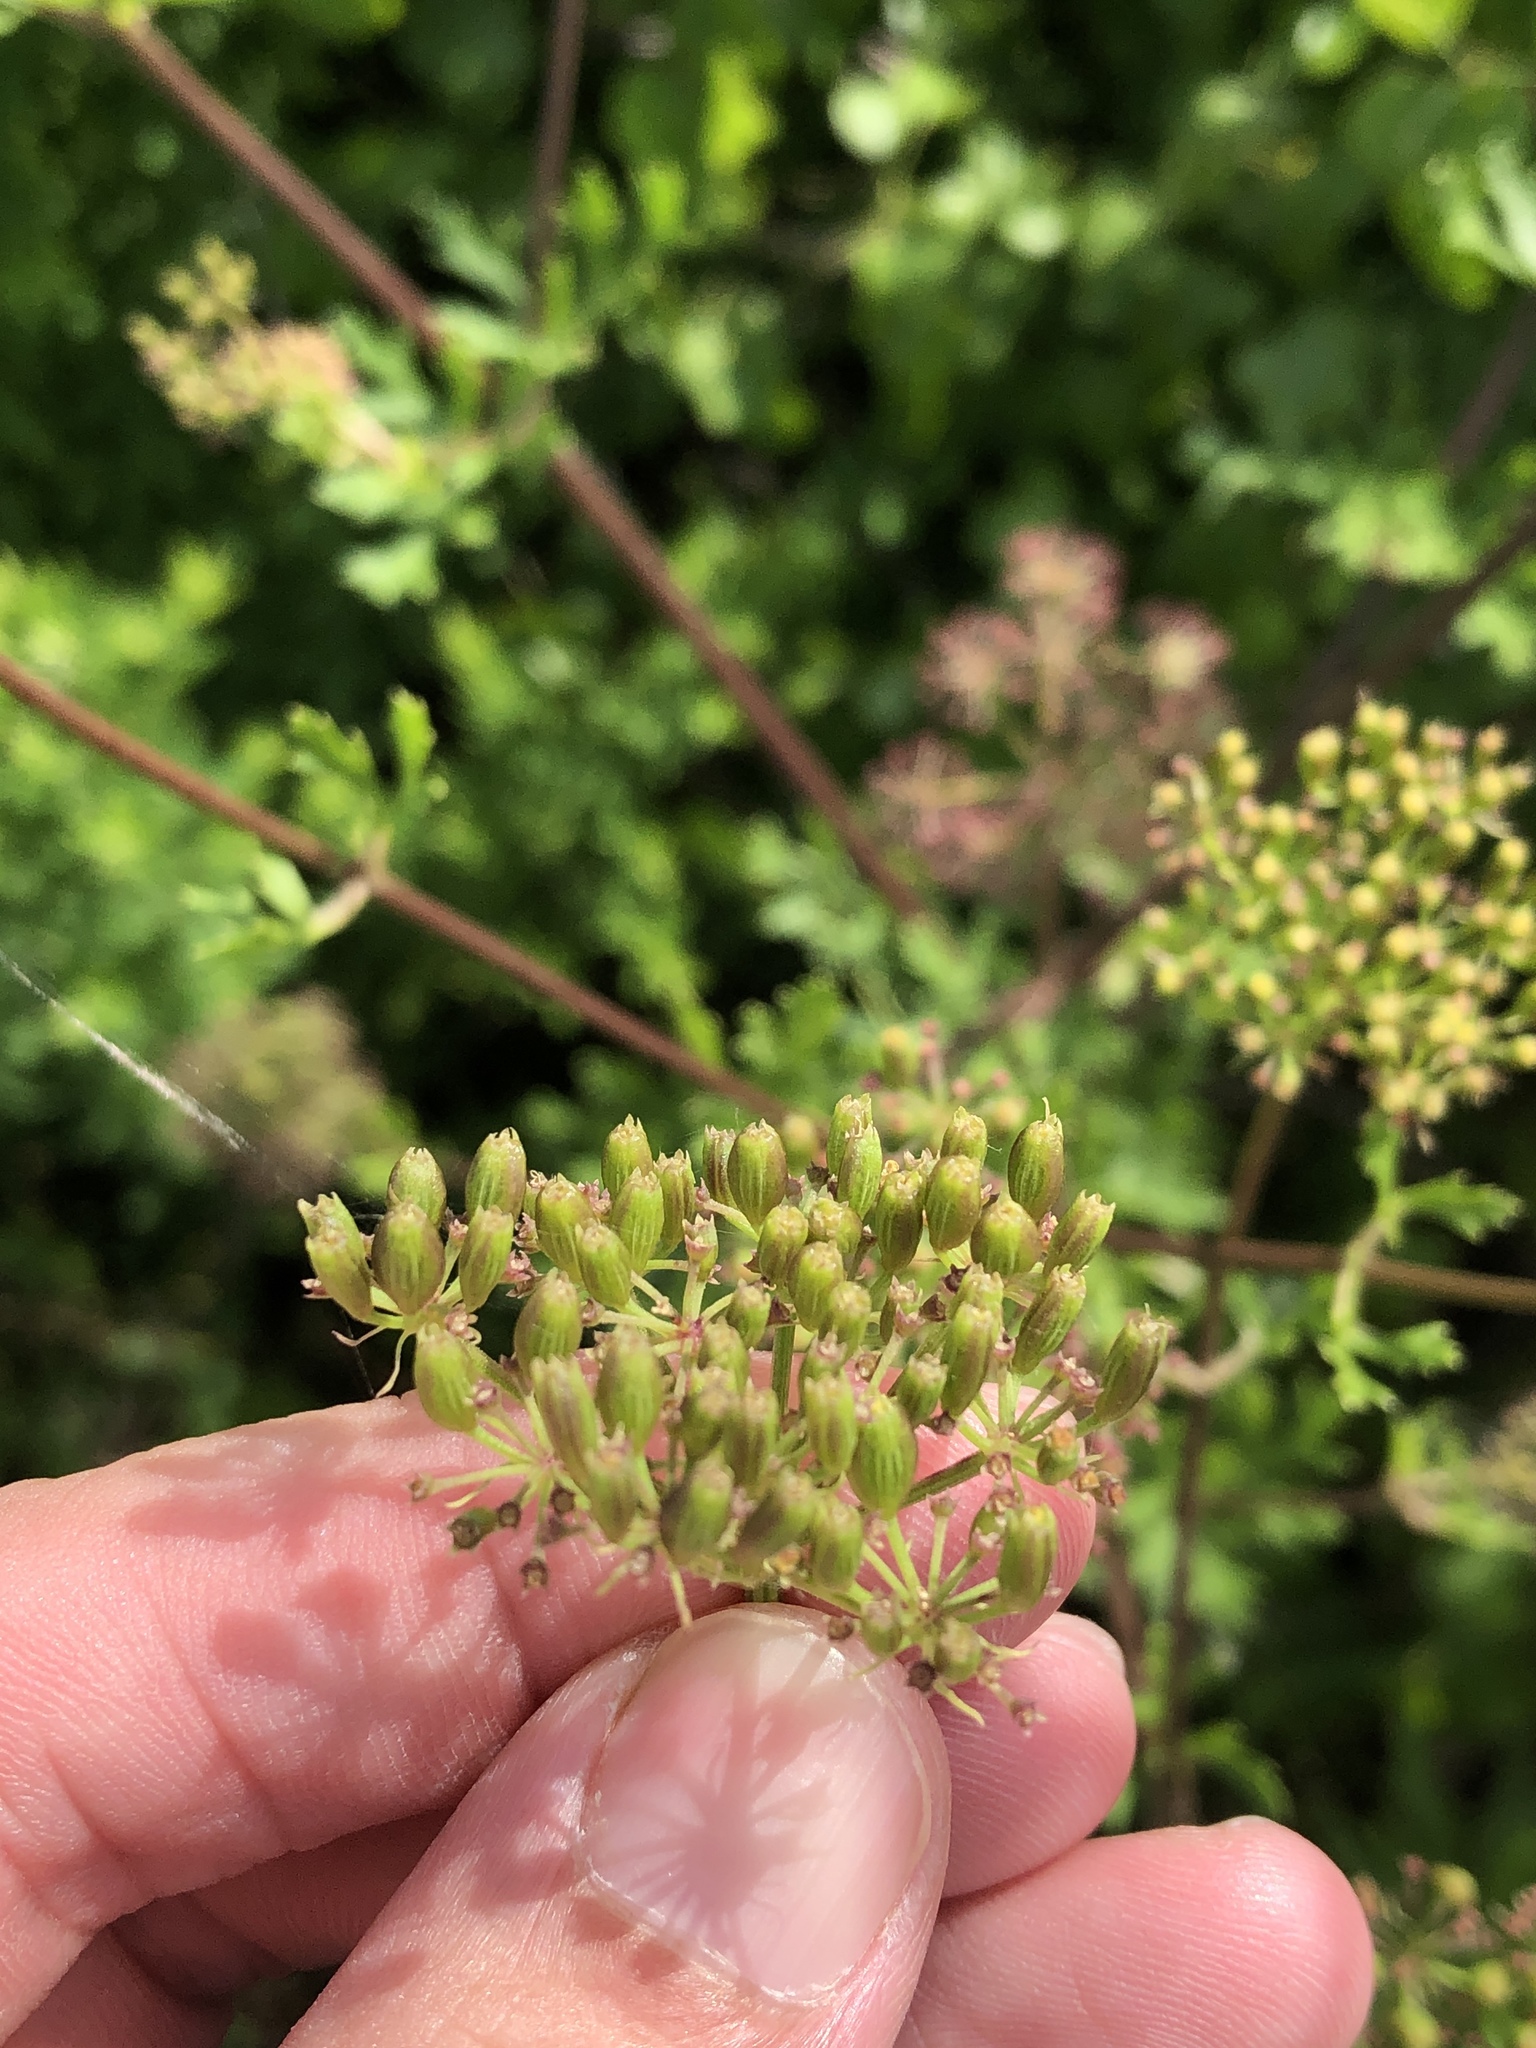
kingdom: Plantae
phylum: Tracheophyta
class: Magnoliopsida
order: Apiales
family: Apiaceae
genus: Polytaenia
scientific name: Polytaenia texana
